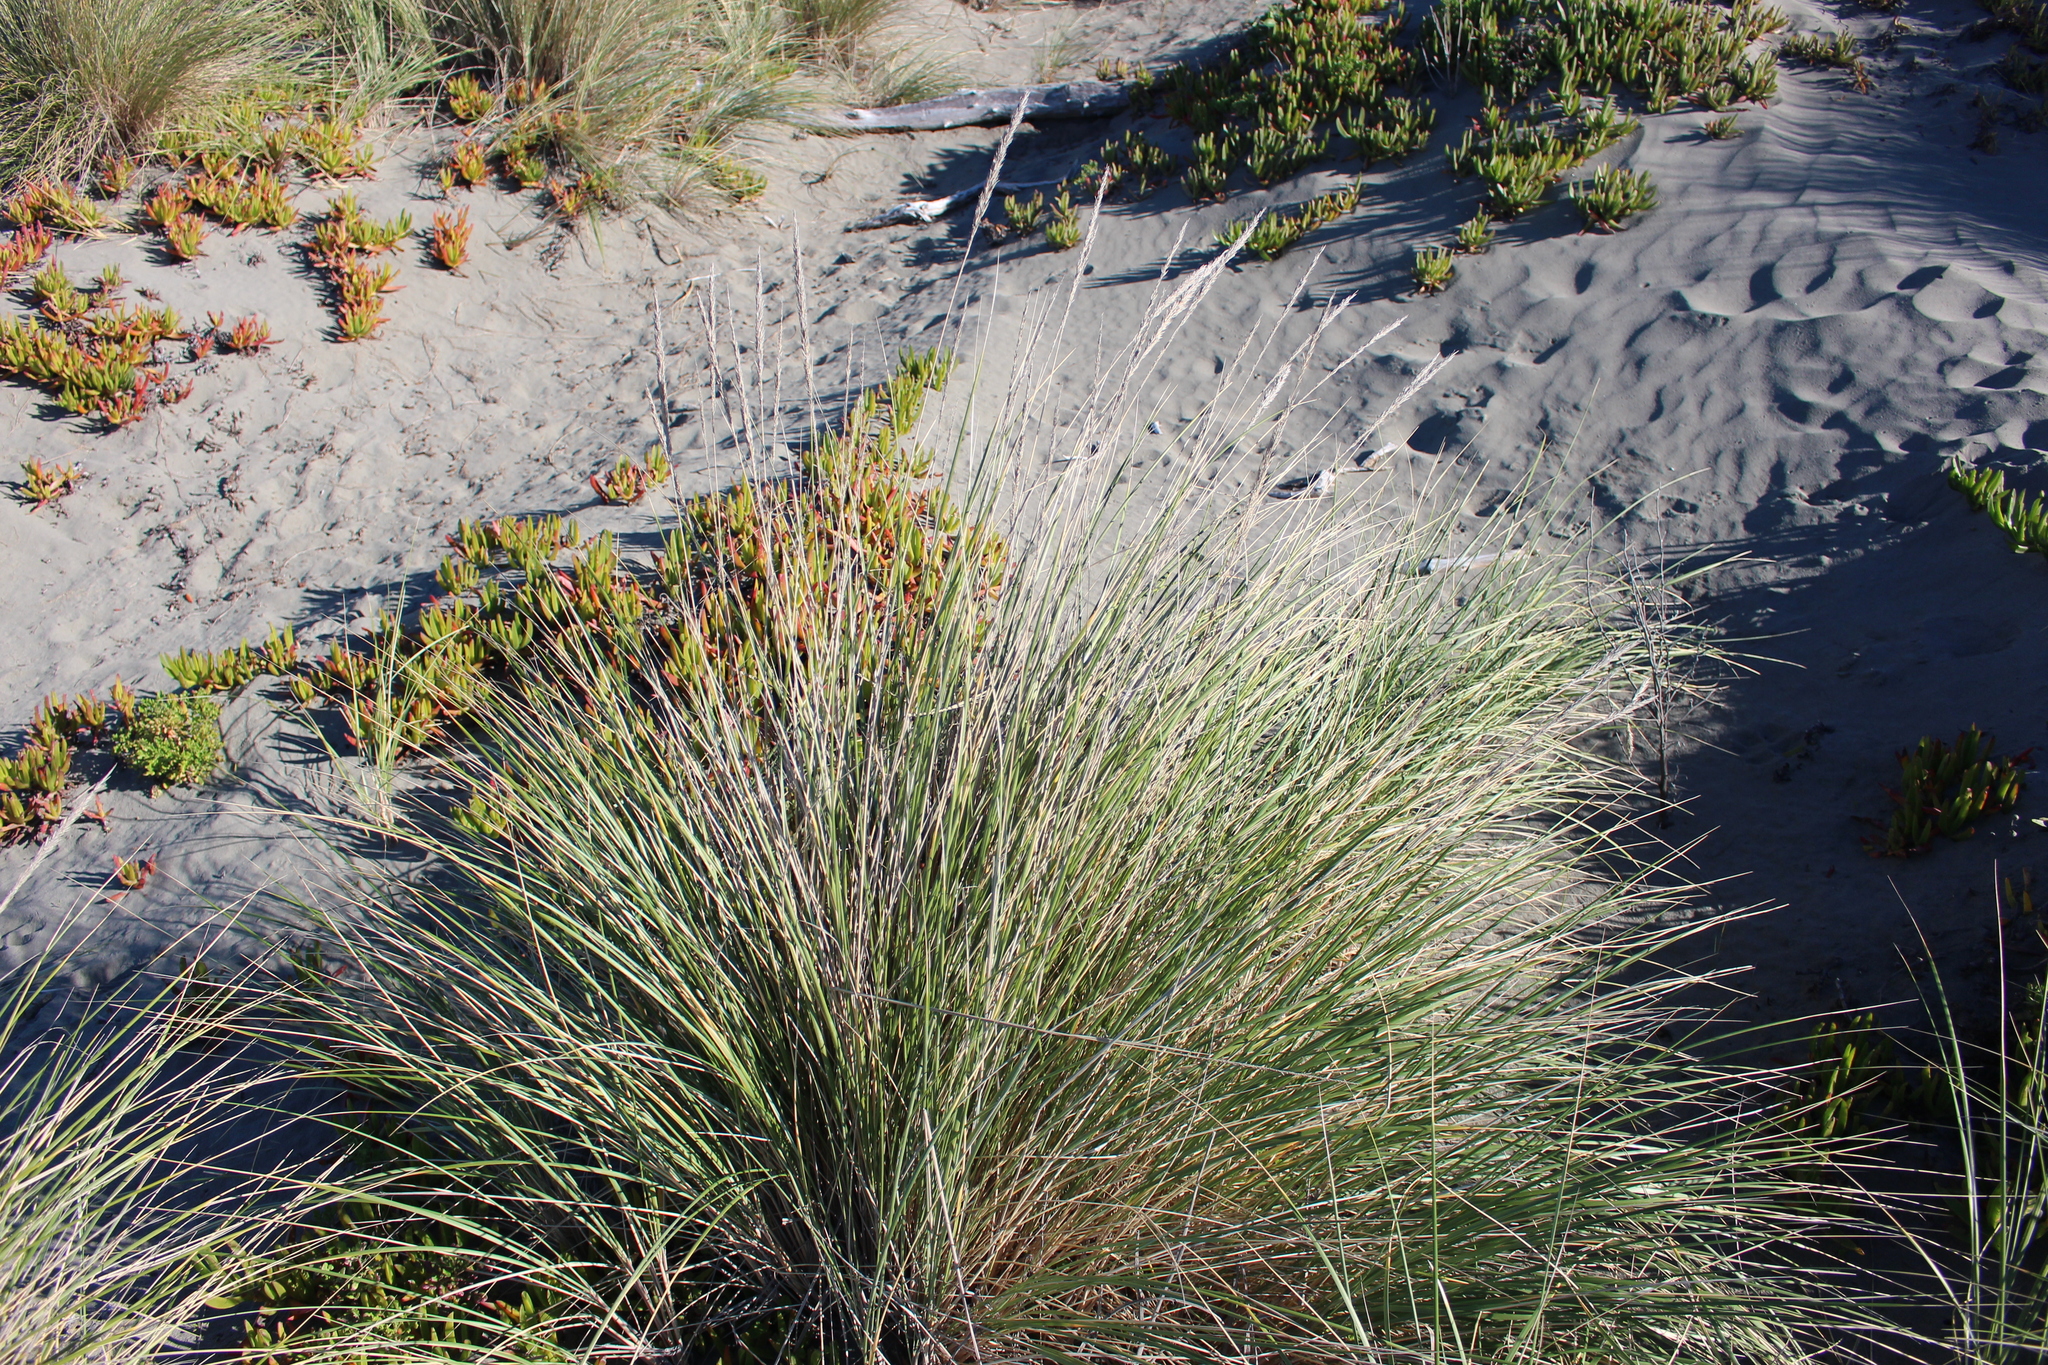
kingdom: Plantae
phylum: Tracheophyta
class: Liliopsida
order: Poales
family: Poaceae
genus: Calamagrostis
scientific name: Calamagrostis arenaria
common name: European beachgrass
